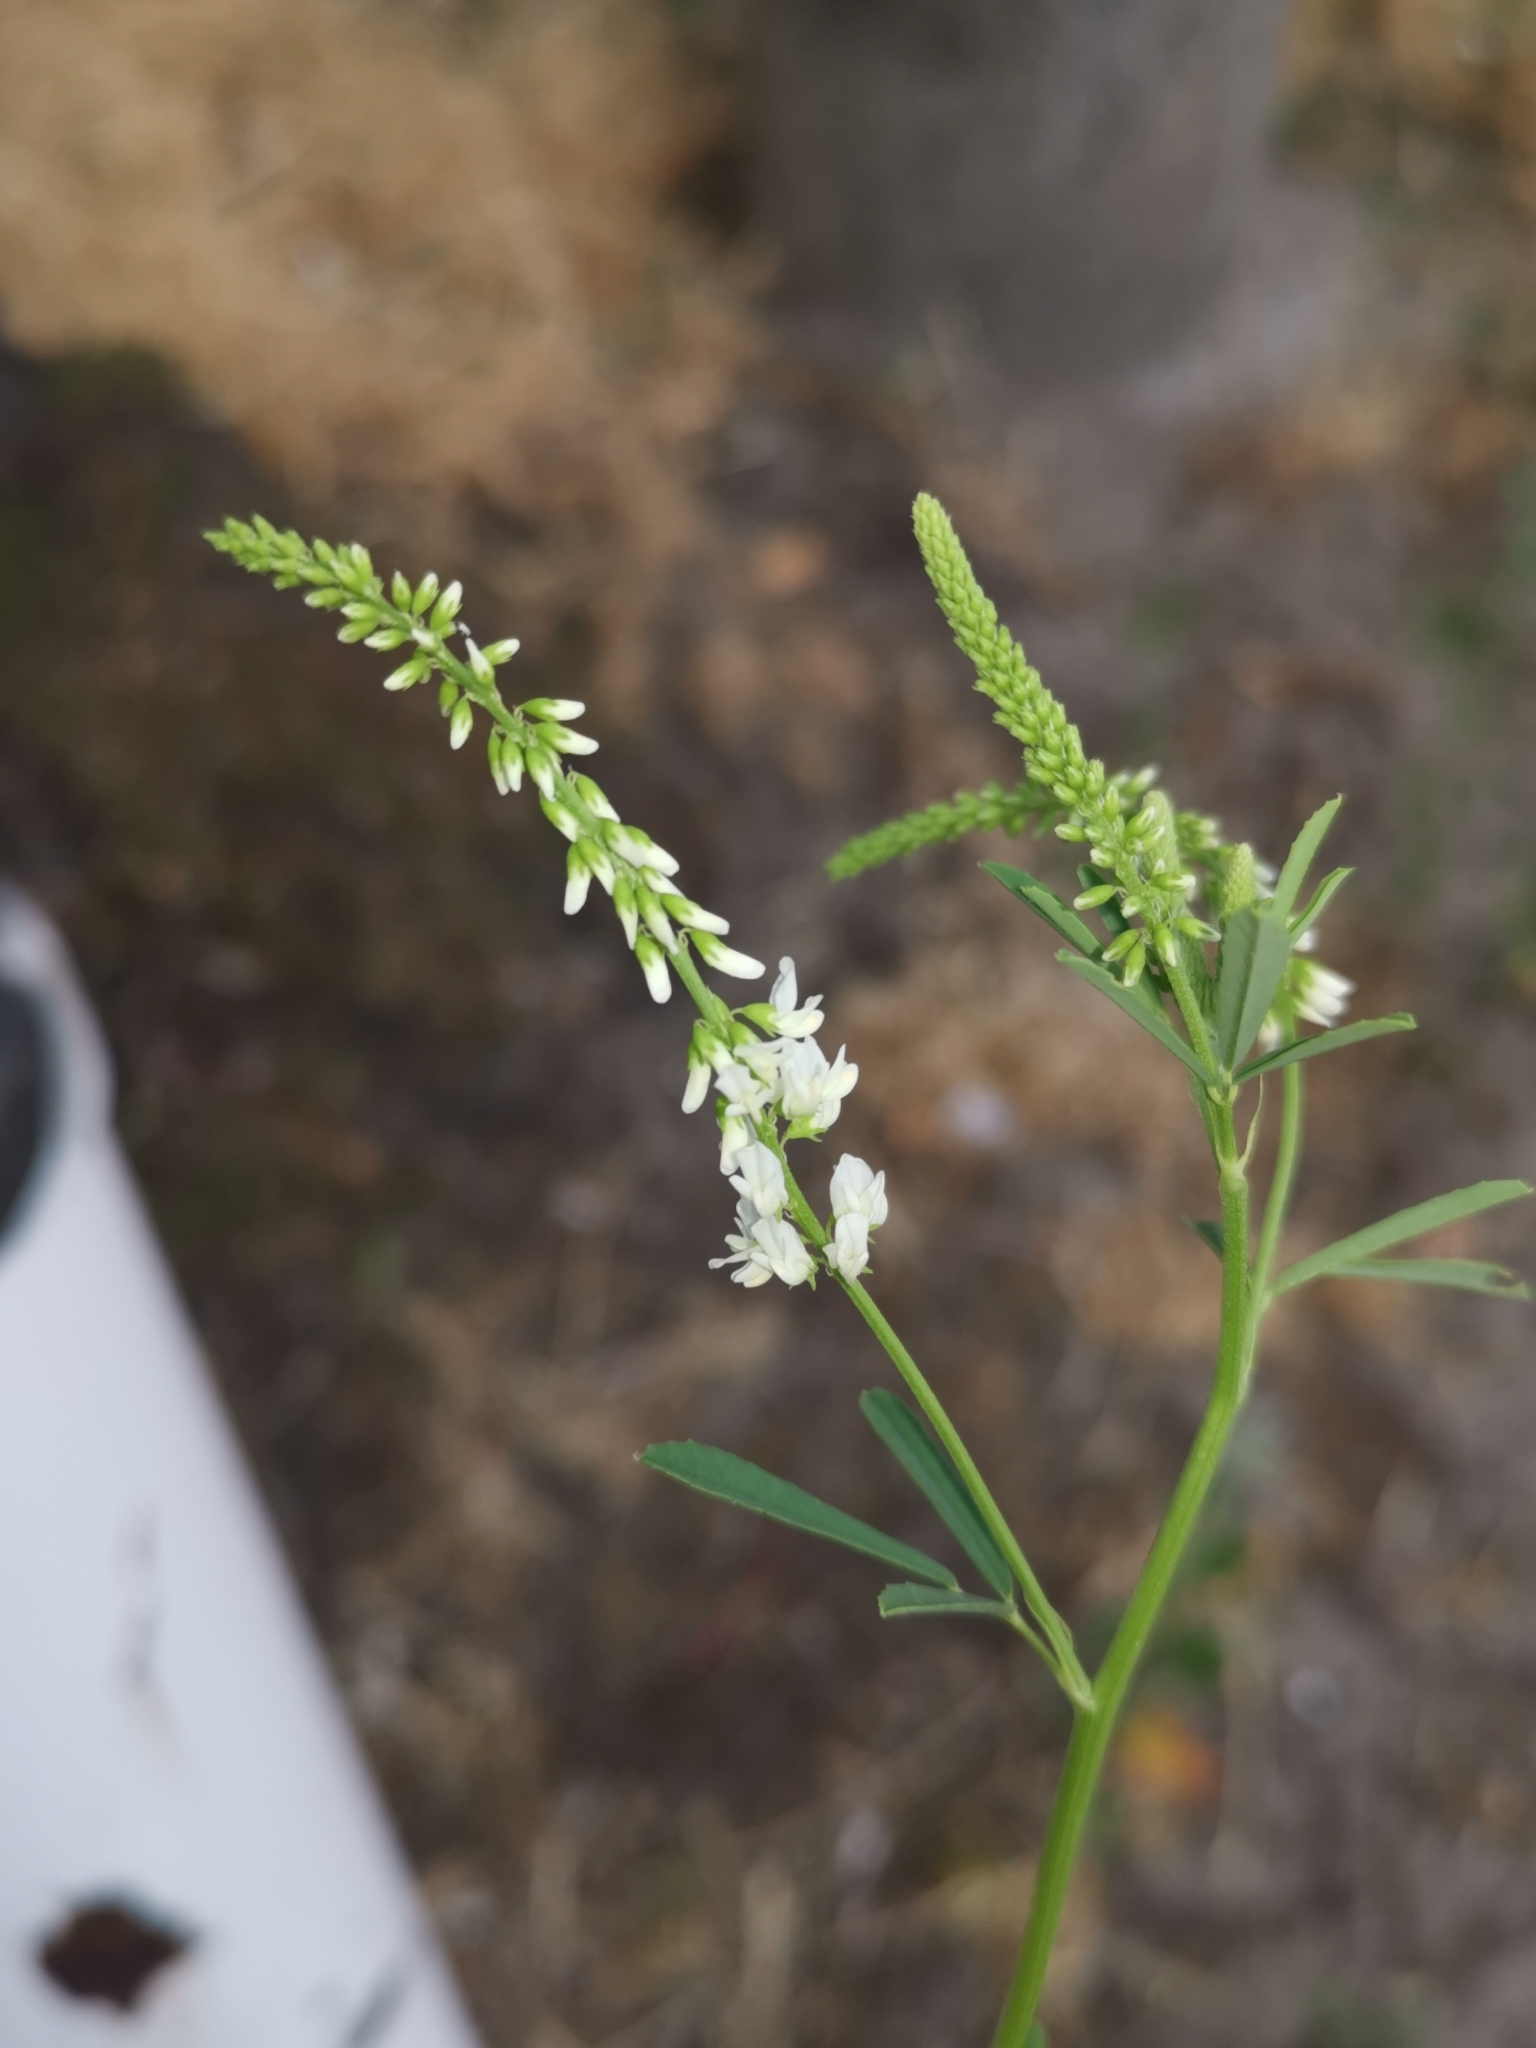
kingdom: Plantae
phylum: Tracheophyta
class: Magnoliopsida
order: Fabales
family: Fabaceae
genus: Melilotus
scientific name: Melilotus albus
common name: White melilot
